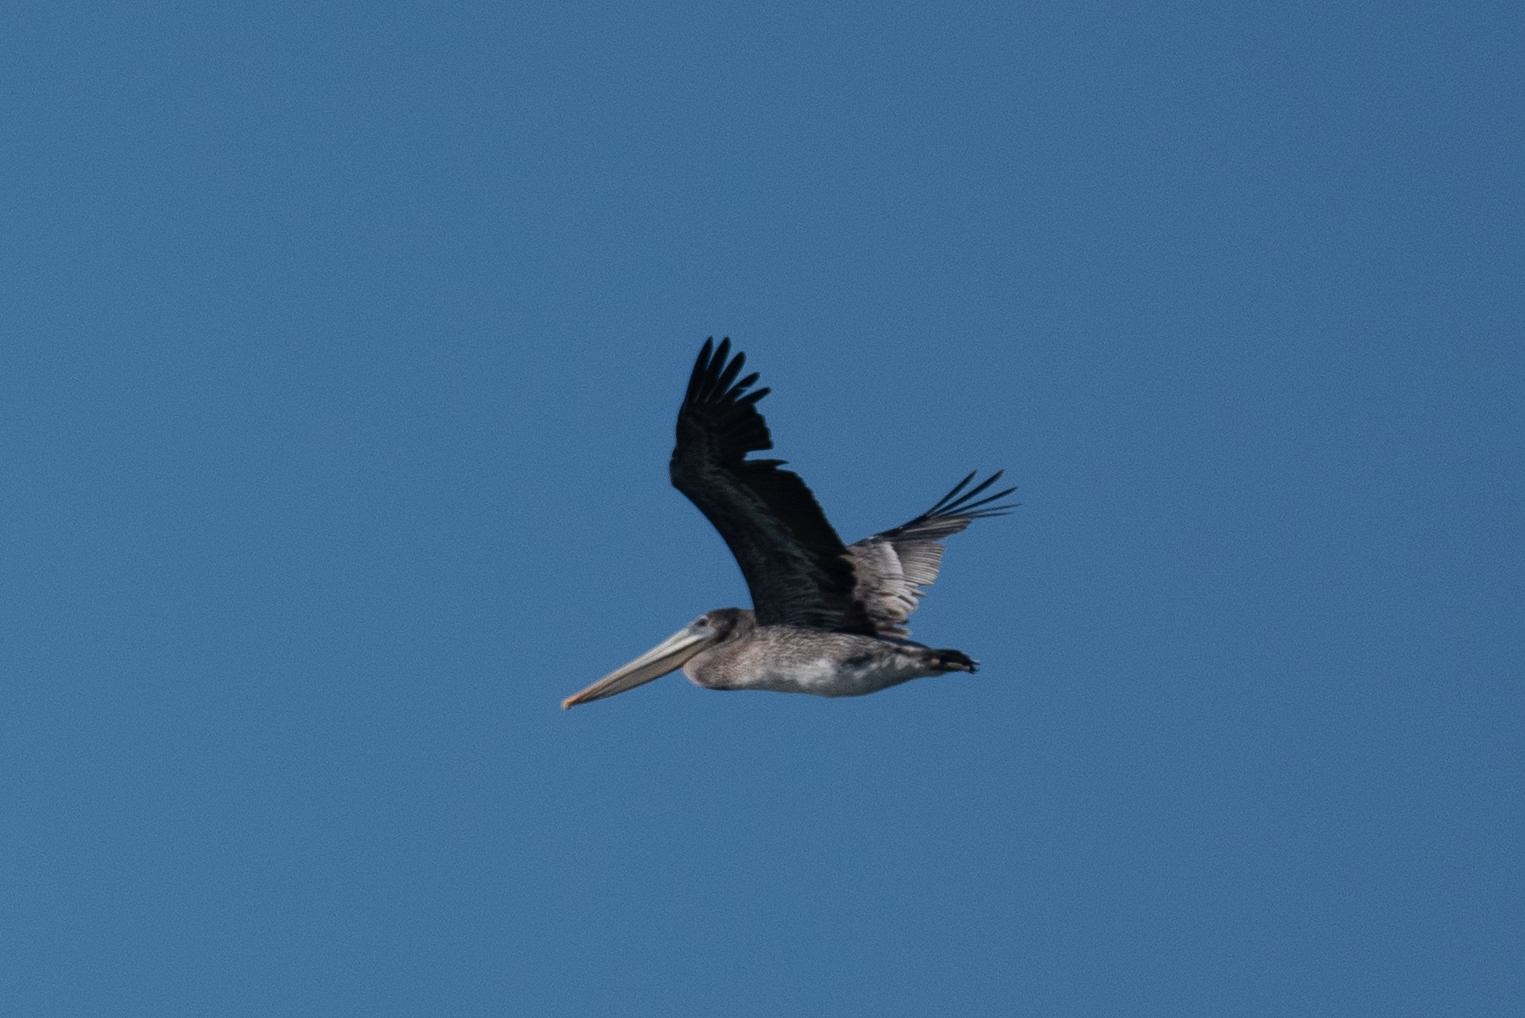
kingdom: Animalia
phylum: Chordata
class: Aves
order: Pelecaniformes
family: Pelecanidae
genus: Pelecanus
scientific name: Pelecanus occidentalis
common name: Brown pelican
